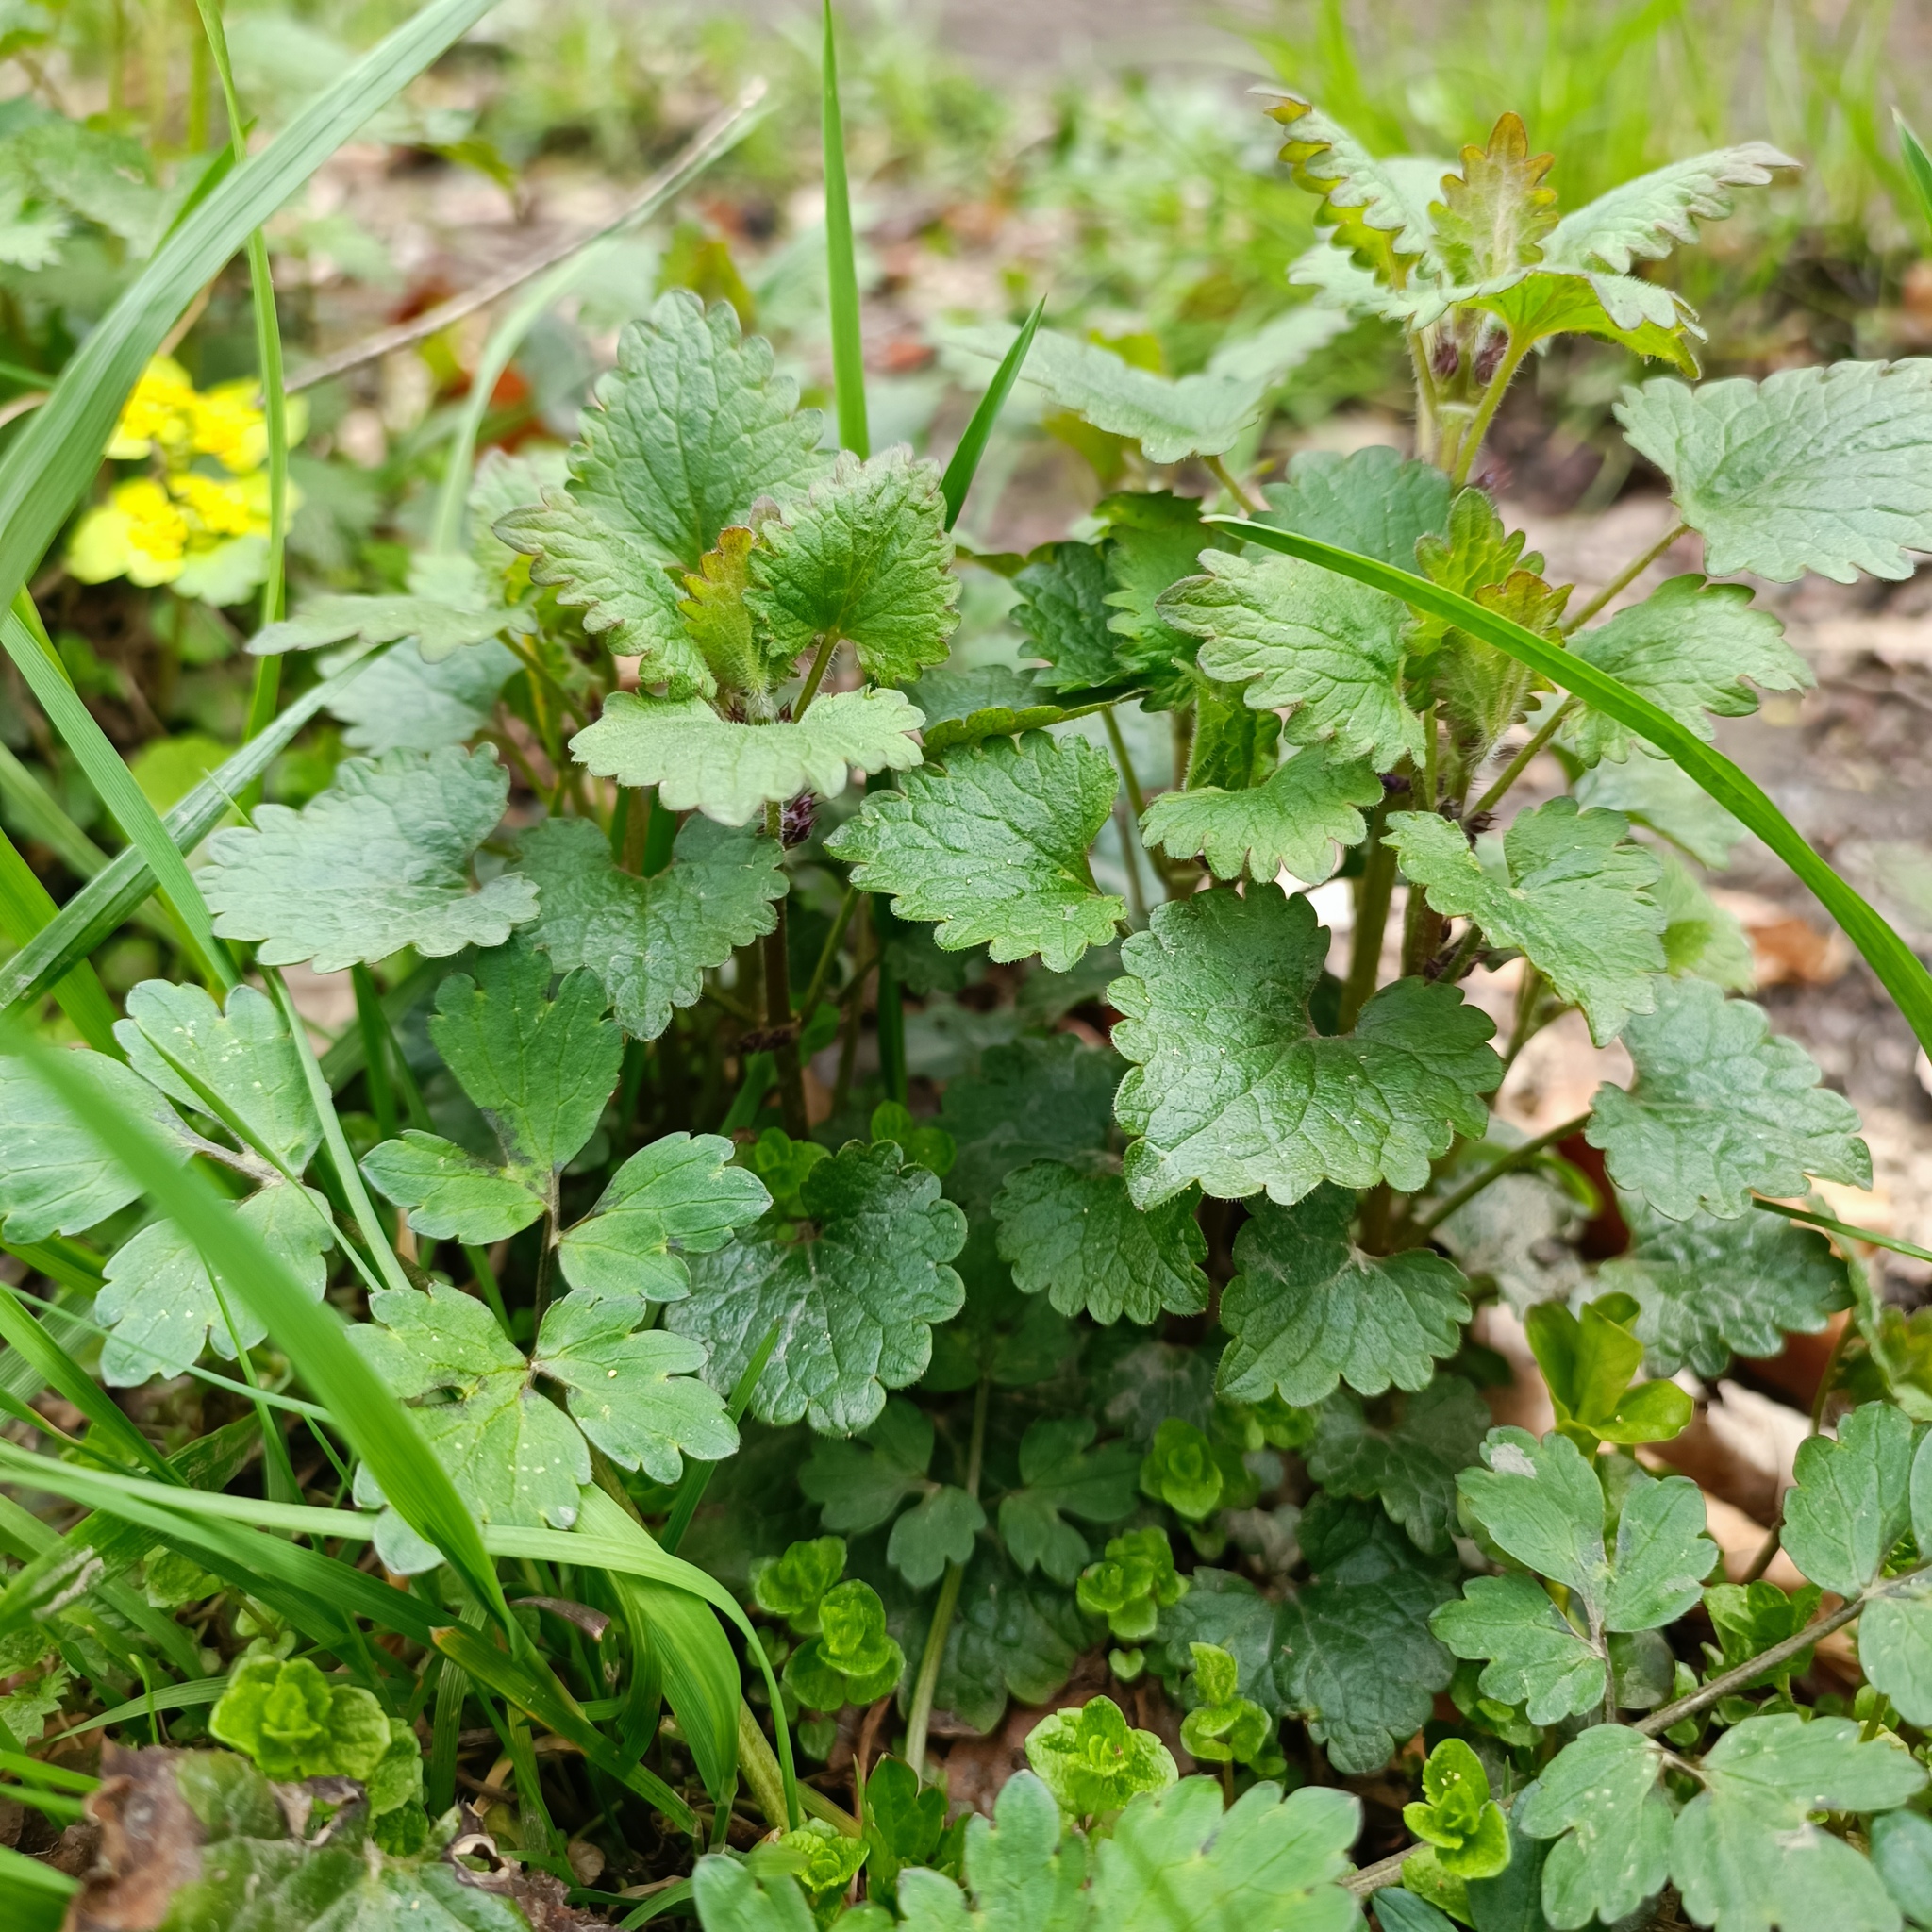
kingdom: Plantae
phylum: Tracheophyta
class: Magnoliopsida
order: Lamiales
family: Lamiaceae
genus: Glechoma
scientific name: Glechoma hederacea
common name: Ground ivy
